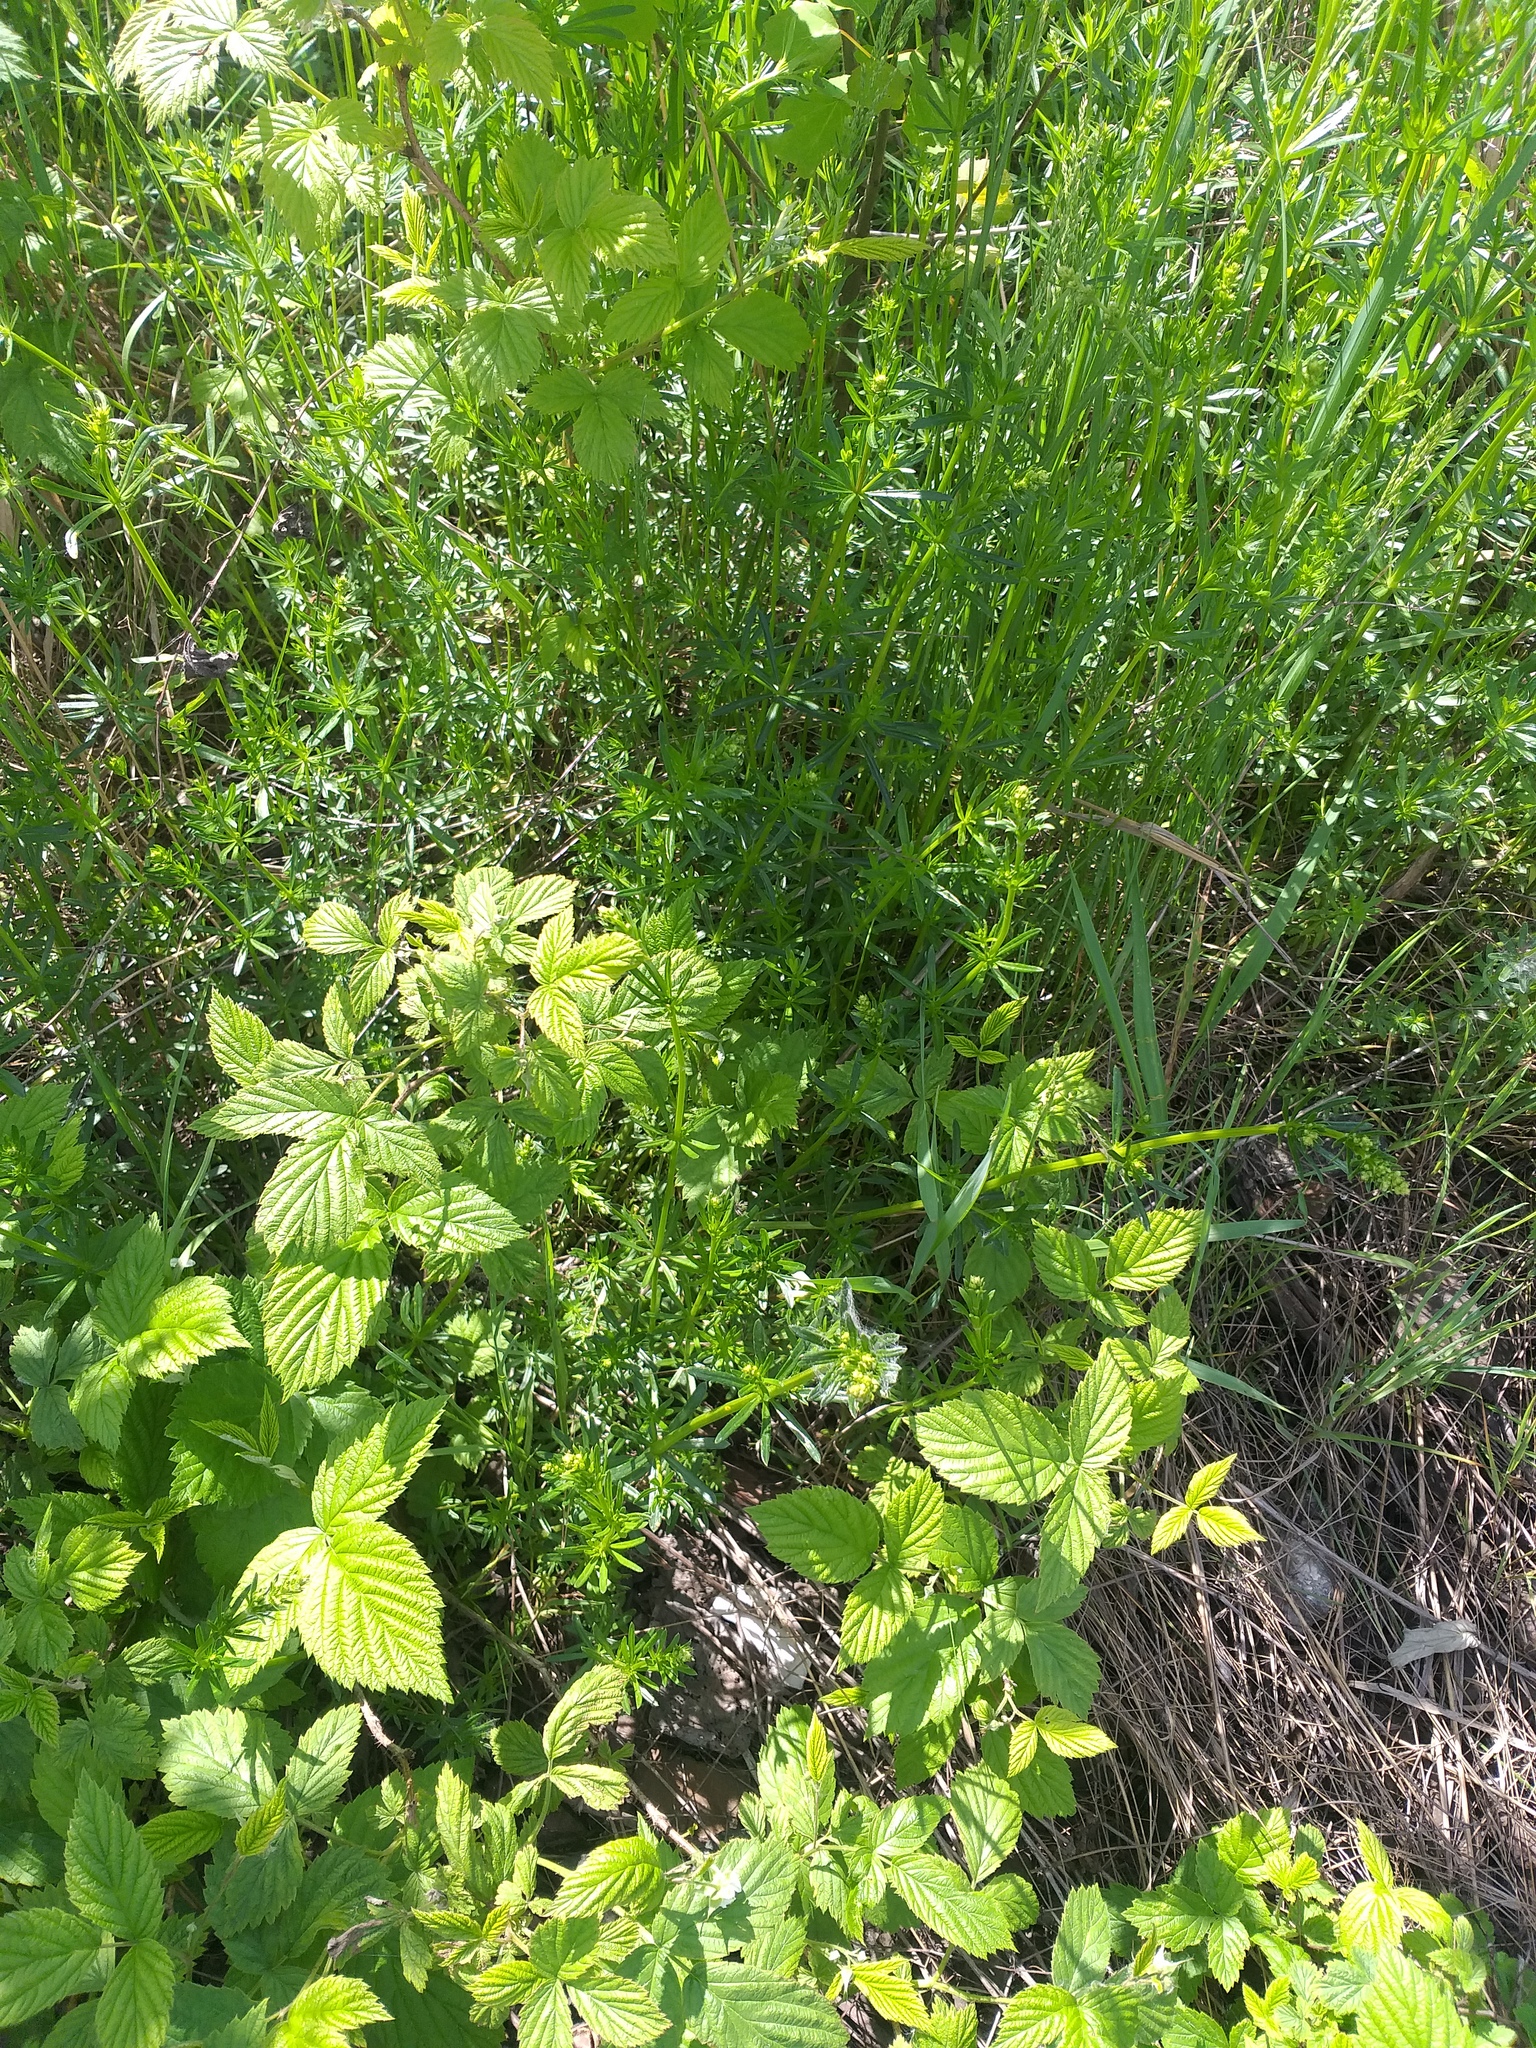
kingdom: Plantae
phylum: Tracheophyta
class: Magnoliopsida
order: Gentianales
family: Rubiaceae
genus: Galium
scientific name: Galium mollugo
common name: Hedge bedstraw
